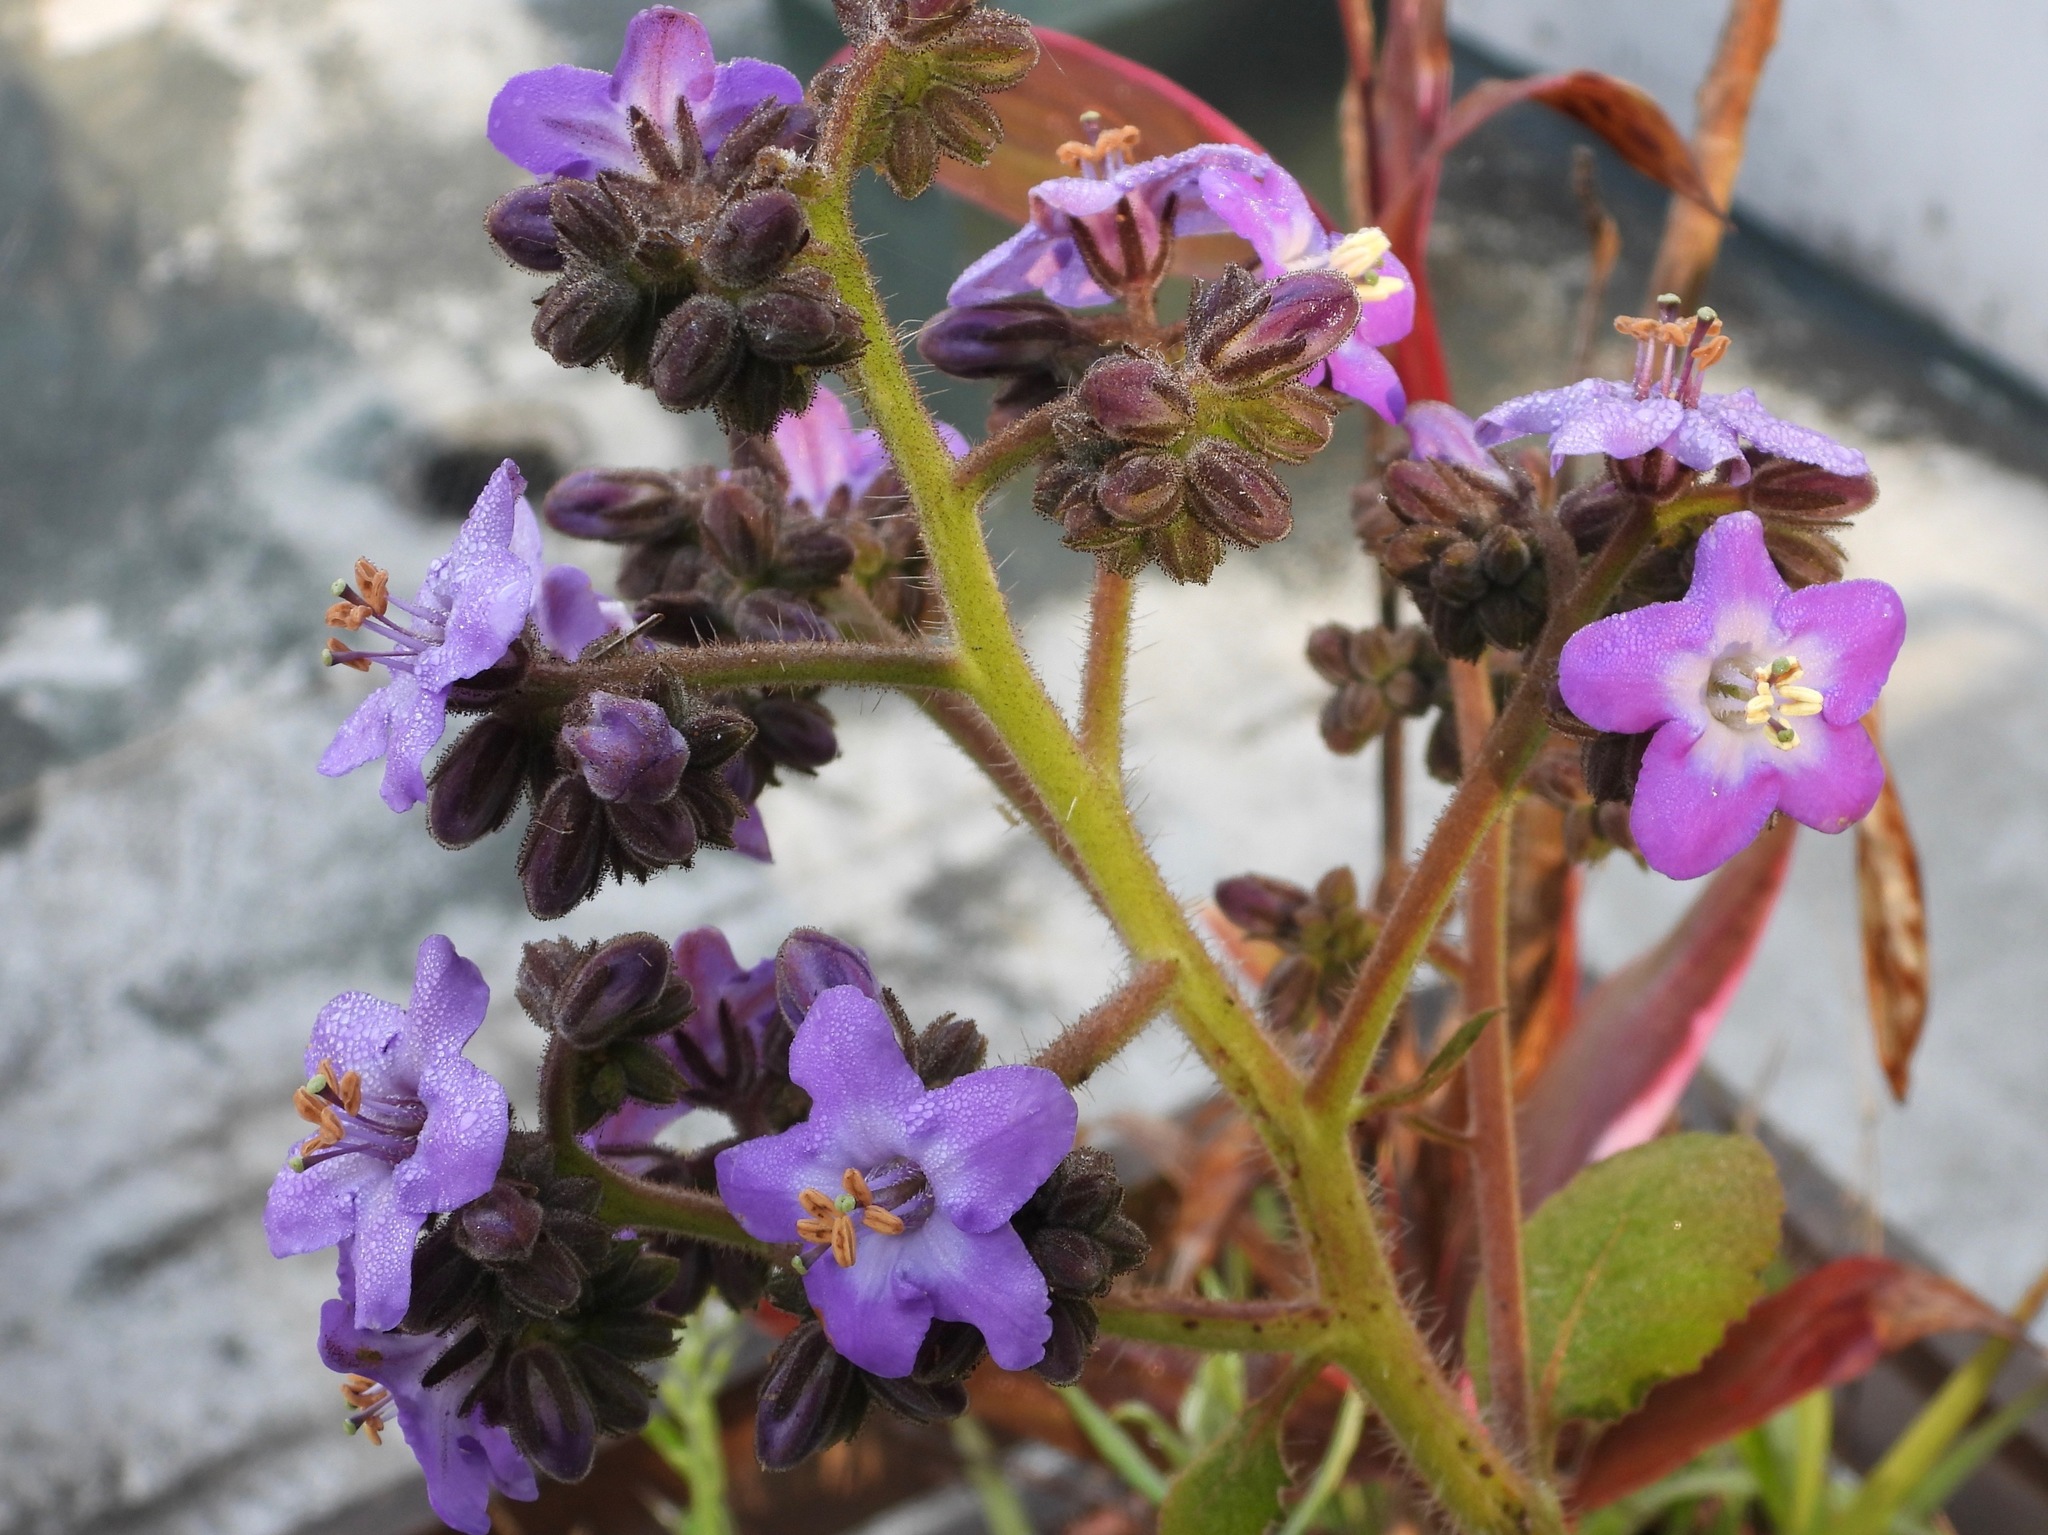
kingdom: Plantae
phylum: Tracheophyta
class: Magnoliopsida
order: Boraginales
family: Namaceae
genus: Wigandia
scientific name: Wigandia urens
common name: Caracus wigandia
